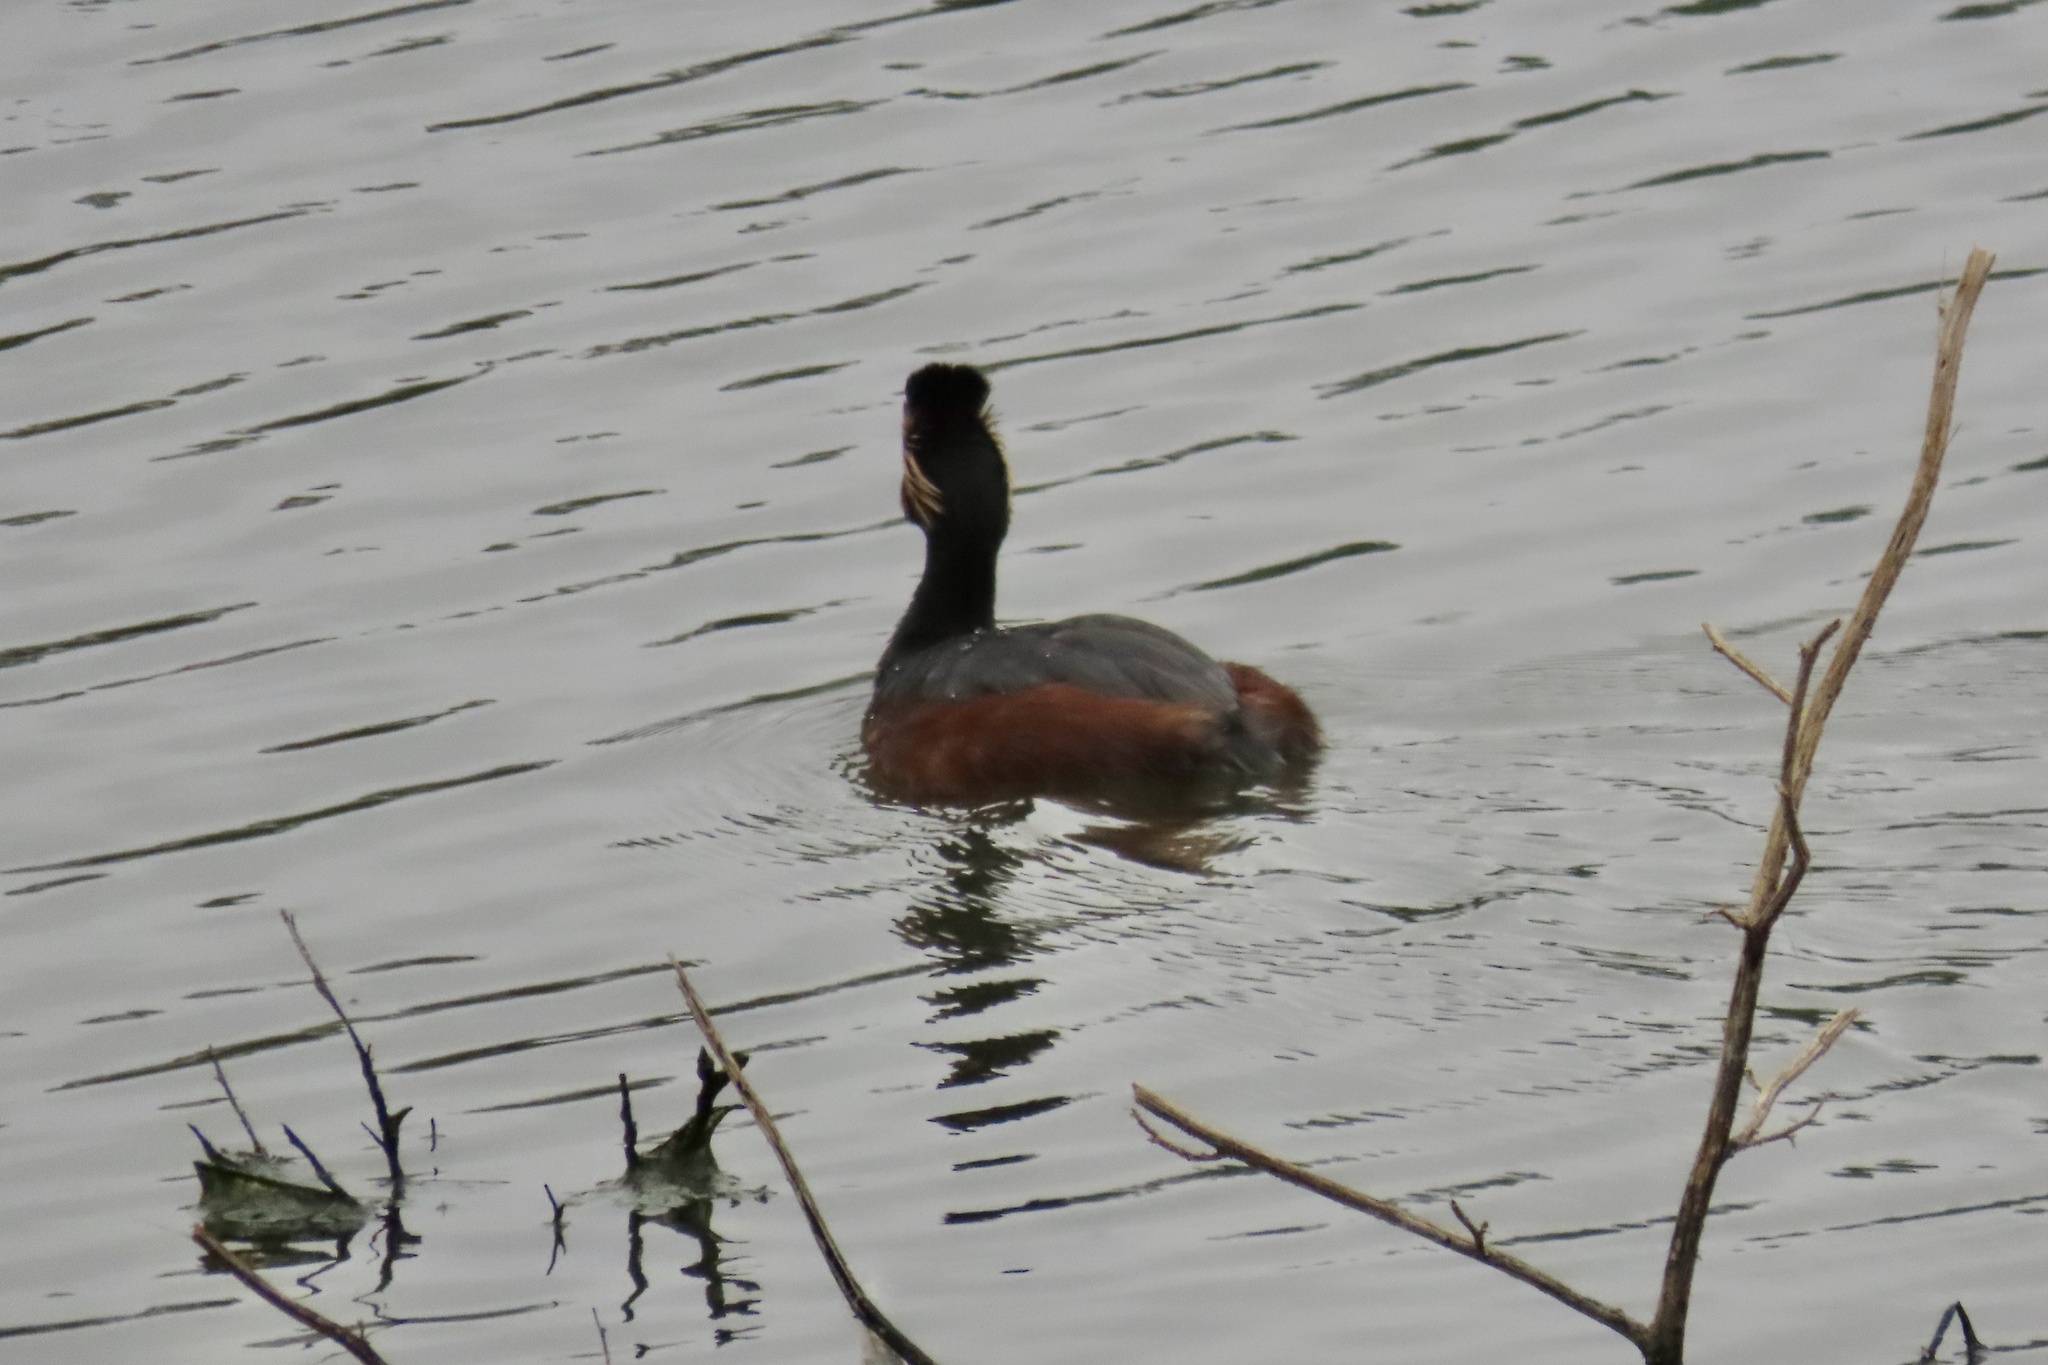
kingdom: Animalia
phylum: Chordata
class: Aves
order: Podicipediformes
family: Podicipedidae
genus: Podiceps
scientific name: Podiceps nigricollis
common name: Black-necked grebe
